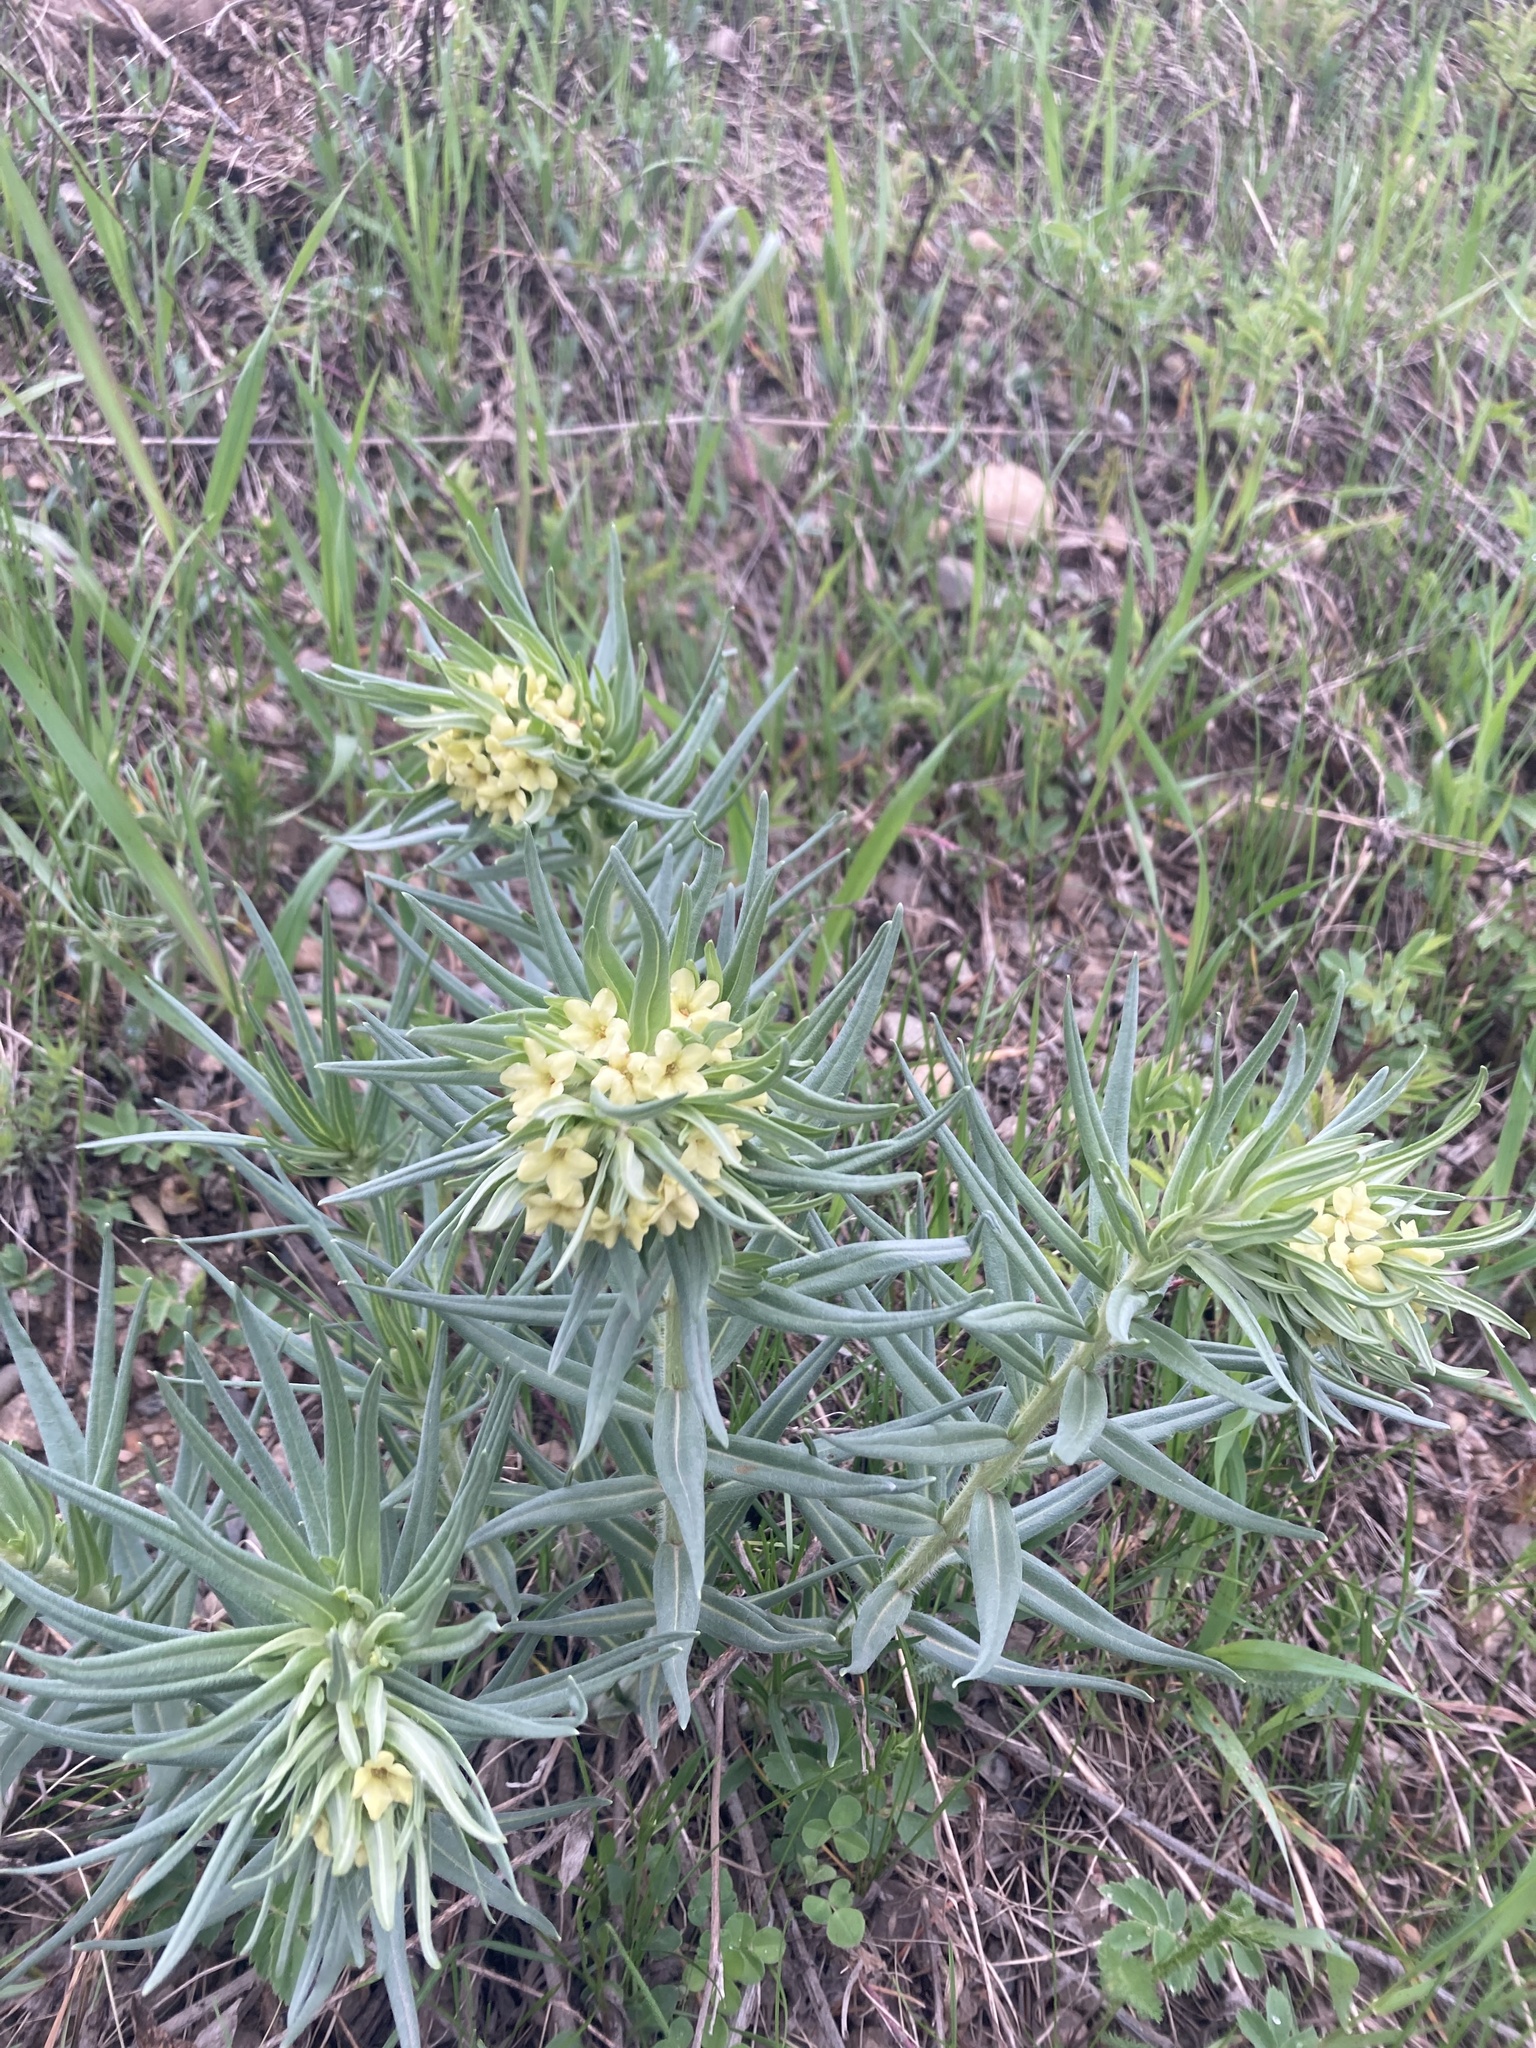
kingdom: Plantae
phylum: Tracheophyta
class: Magnoliopsida
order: Boraginales
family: Boraginaceae
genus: Lithospermum
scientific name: Lithospermum ruderale
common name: Western gromwell
